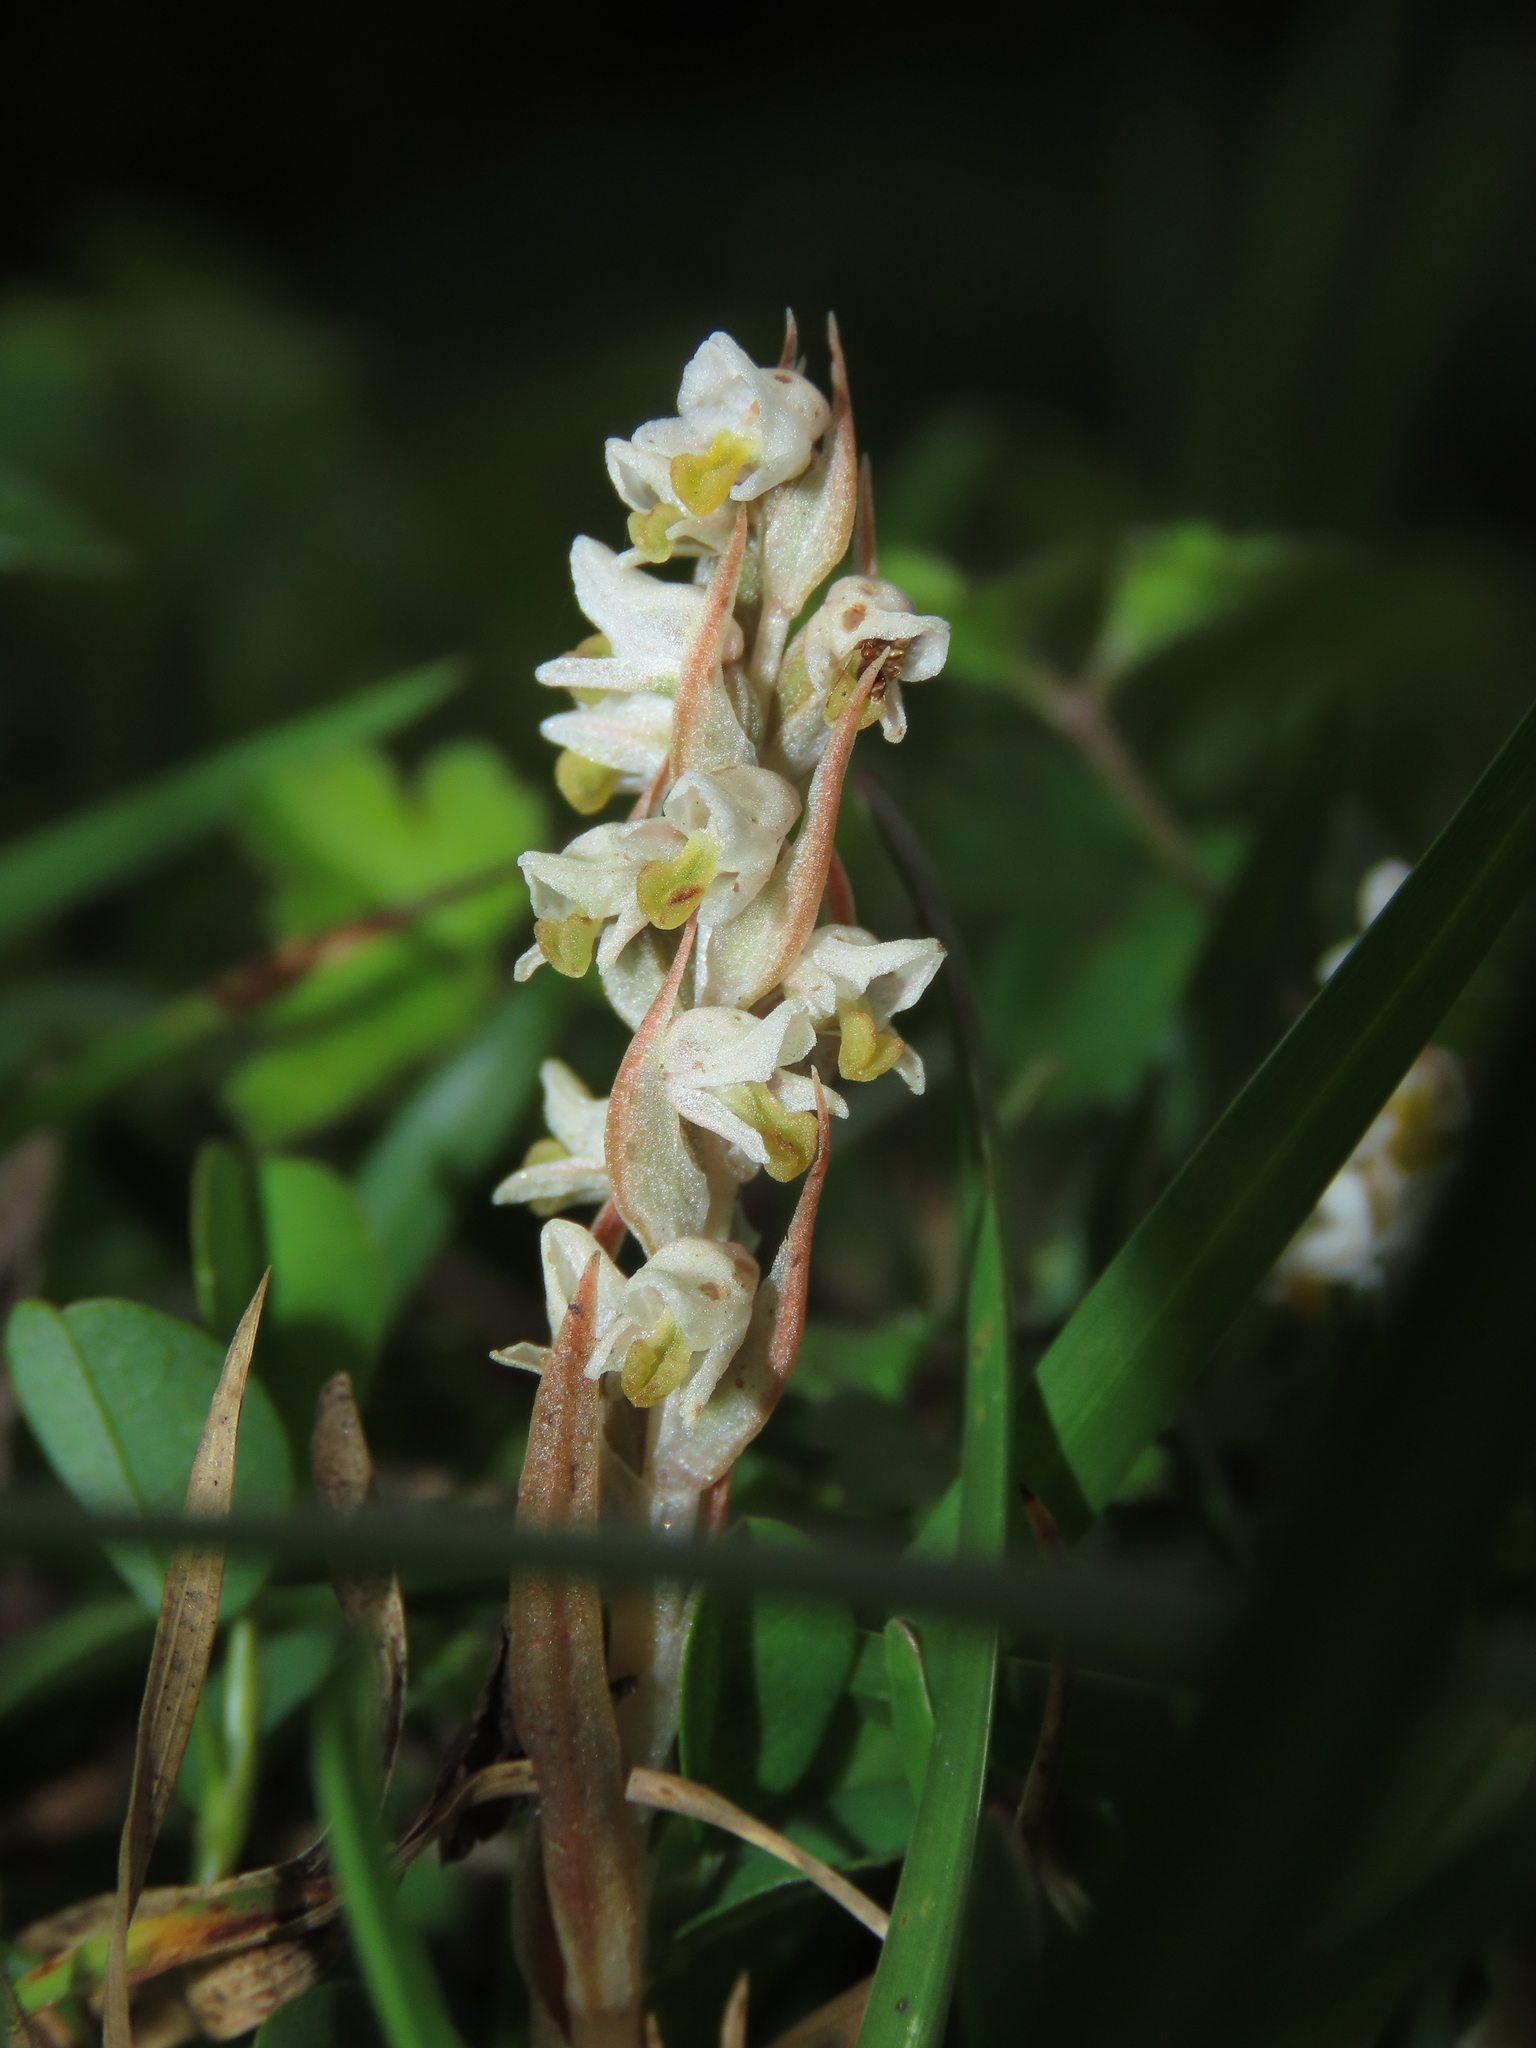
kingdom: Plantae
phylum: Tracheophyta
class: Liliopsida
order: Asparagales
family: Orchidaceae
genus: Zeuxine
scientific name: Zeuxine strateumatica
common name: Soldier's orchid
